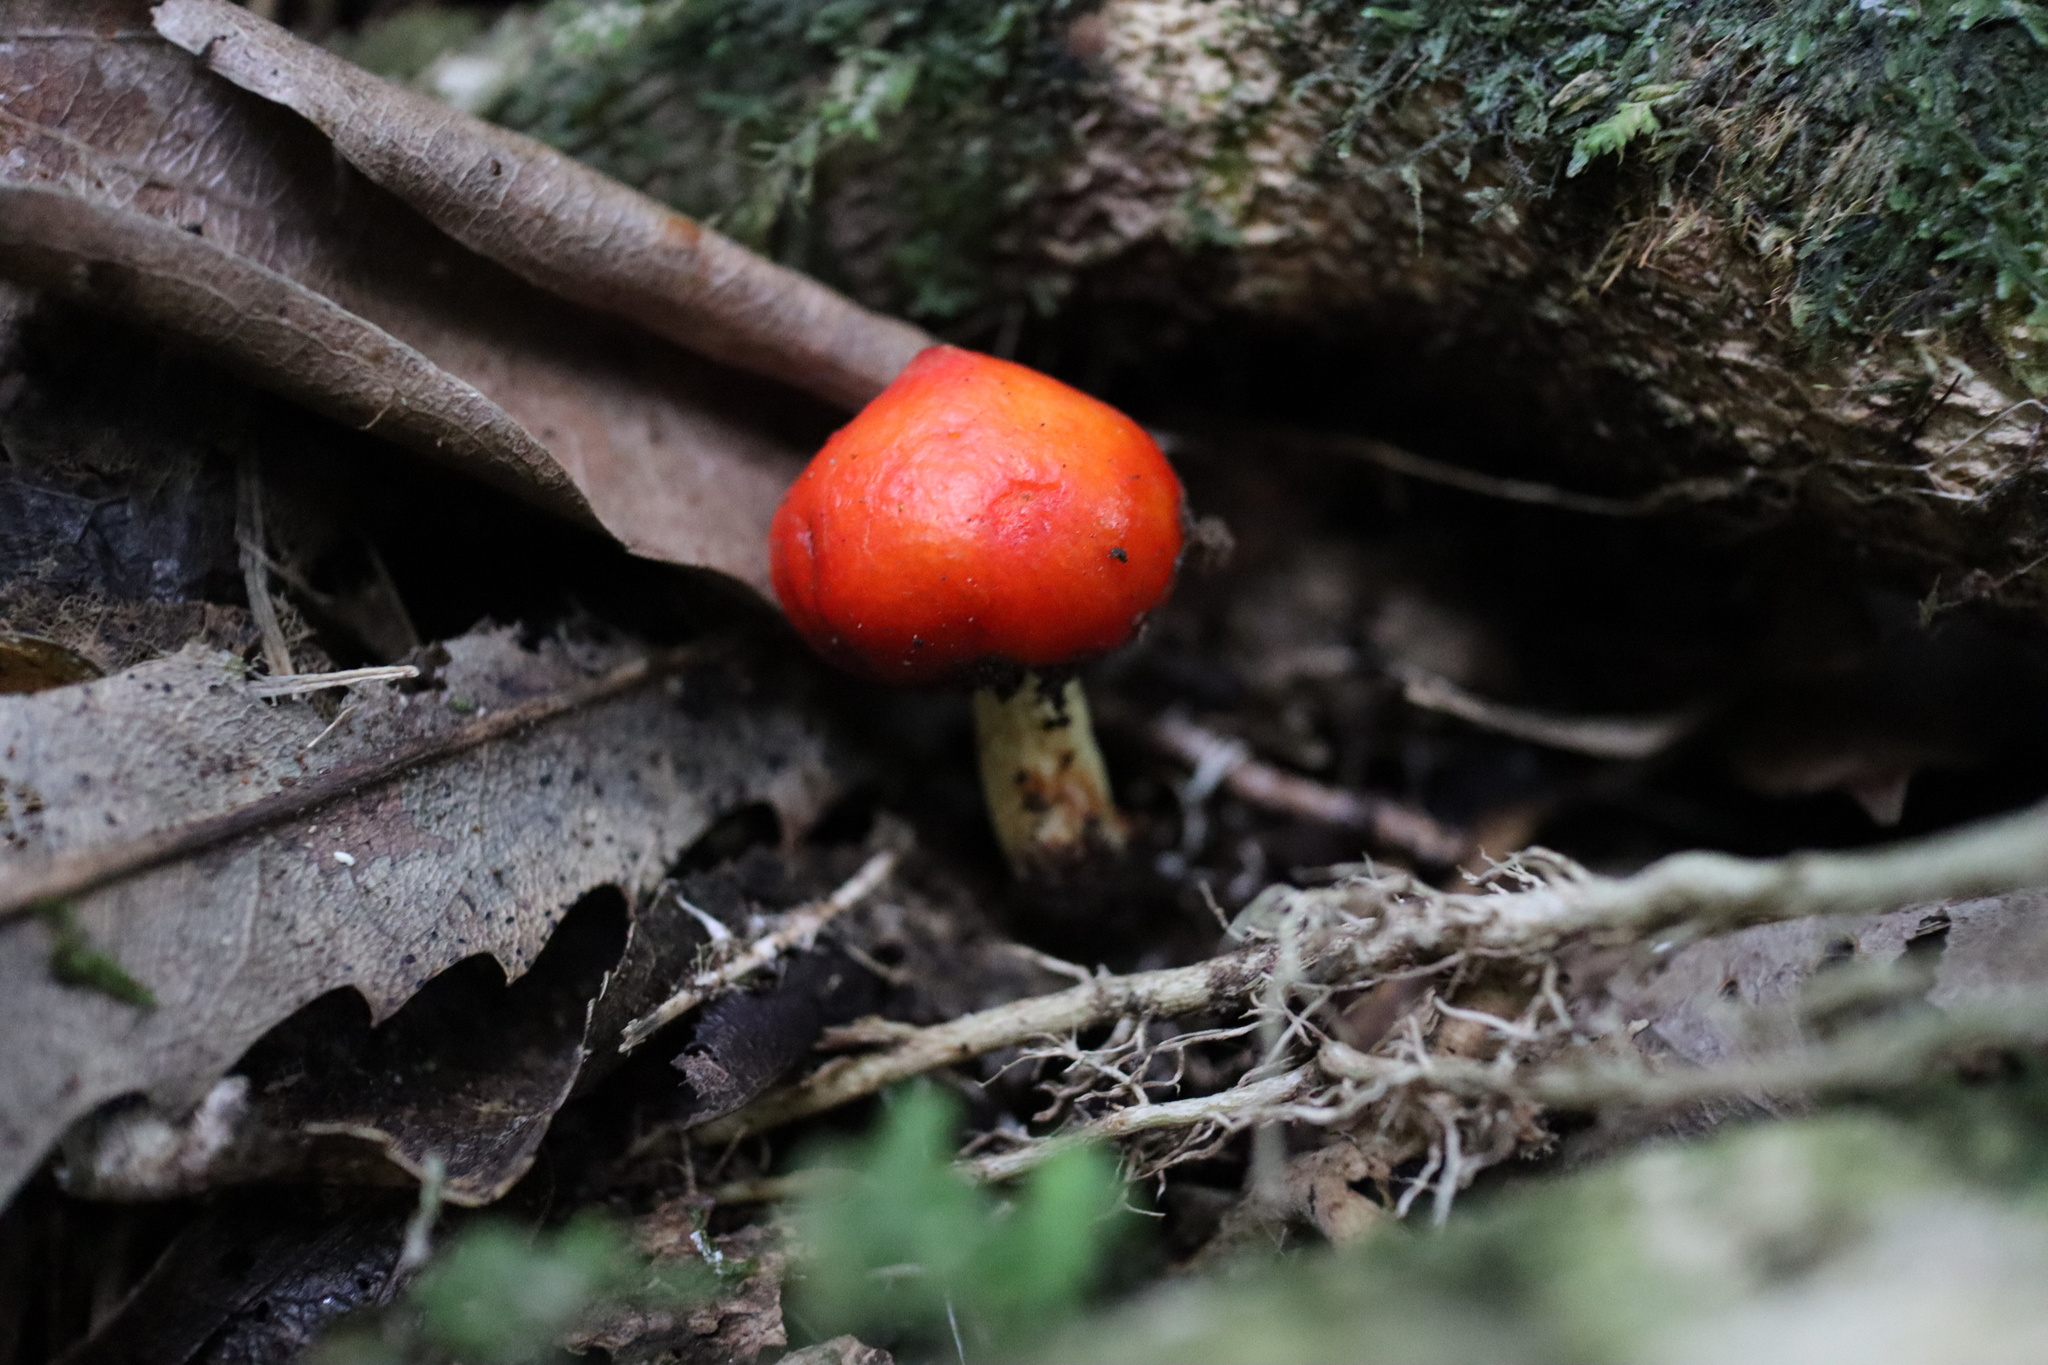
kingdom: Fungi
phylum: Basidiomycota
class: Agaricomycetes
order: Agaricales
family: Strophariaceae
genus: Leratiomyces
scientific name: Leratiomyces erythrocephalus
